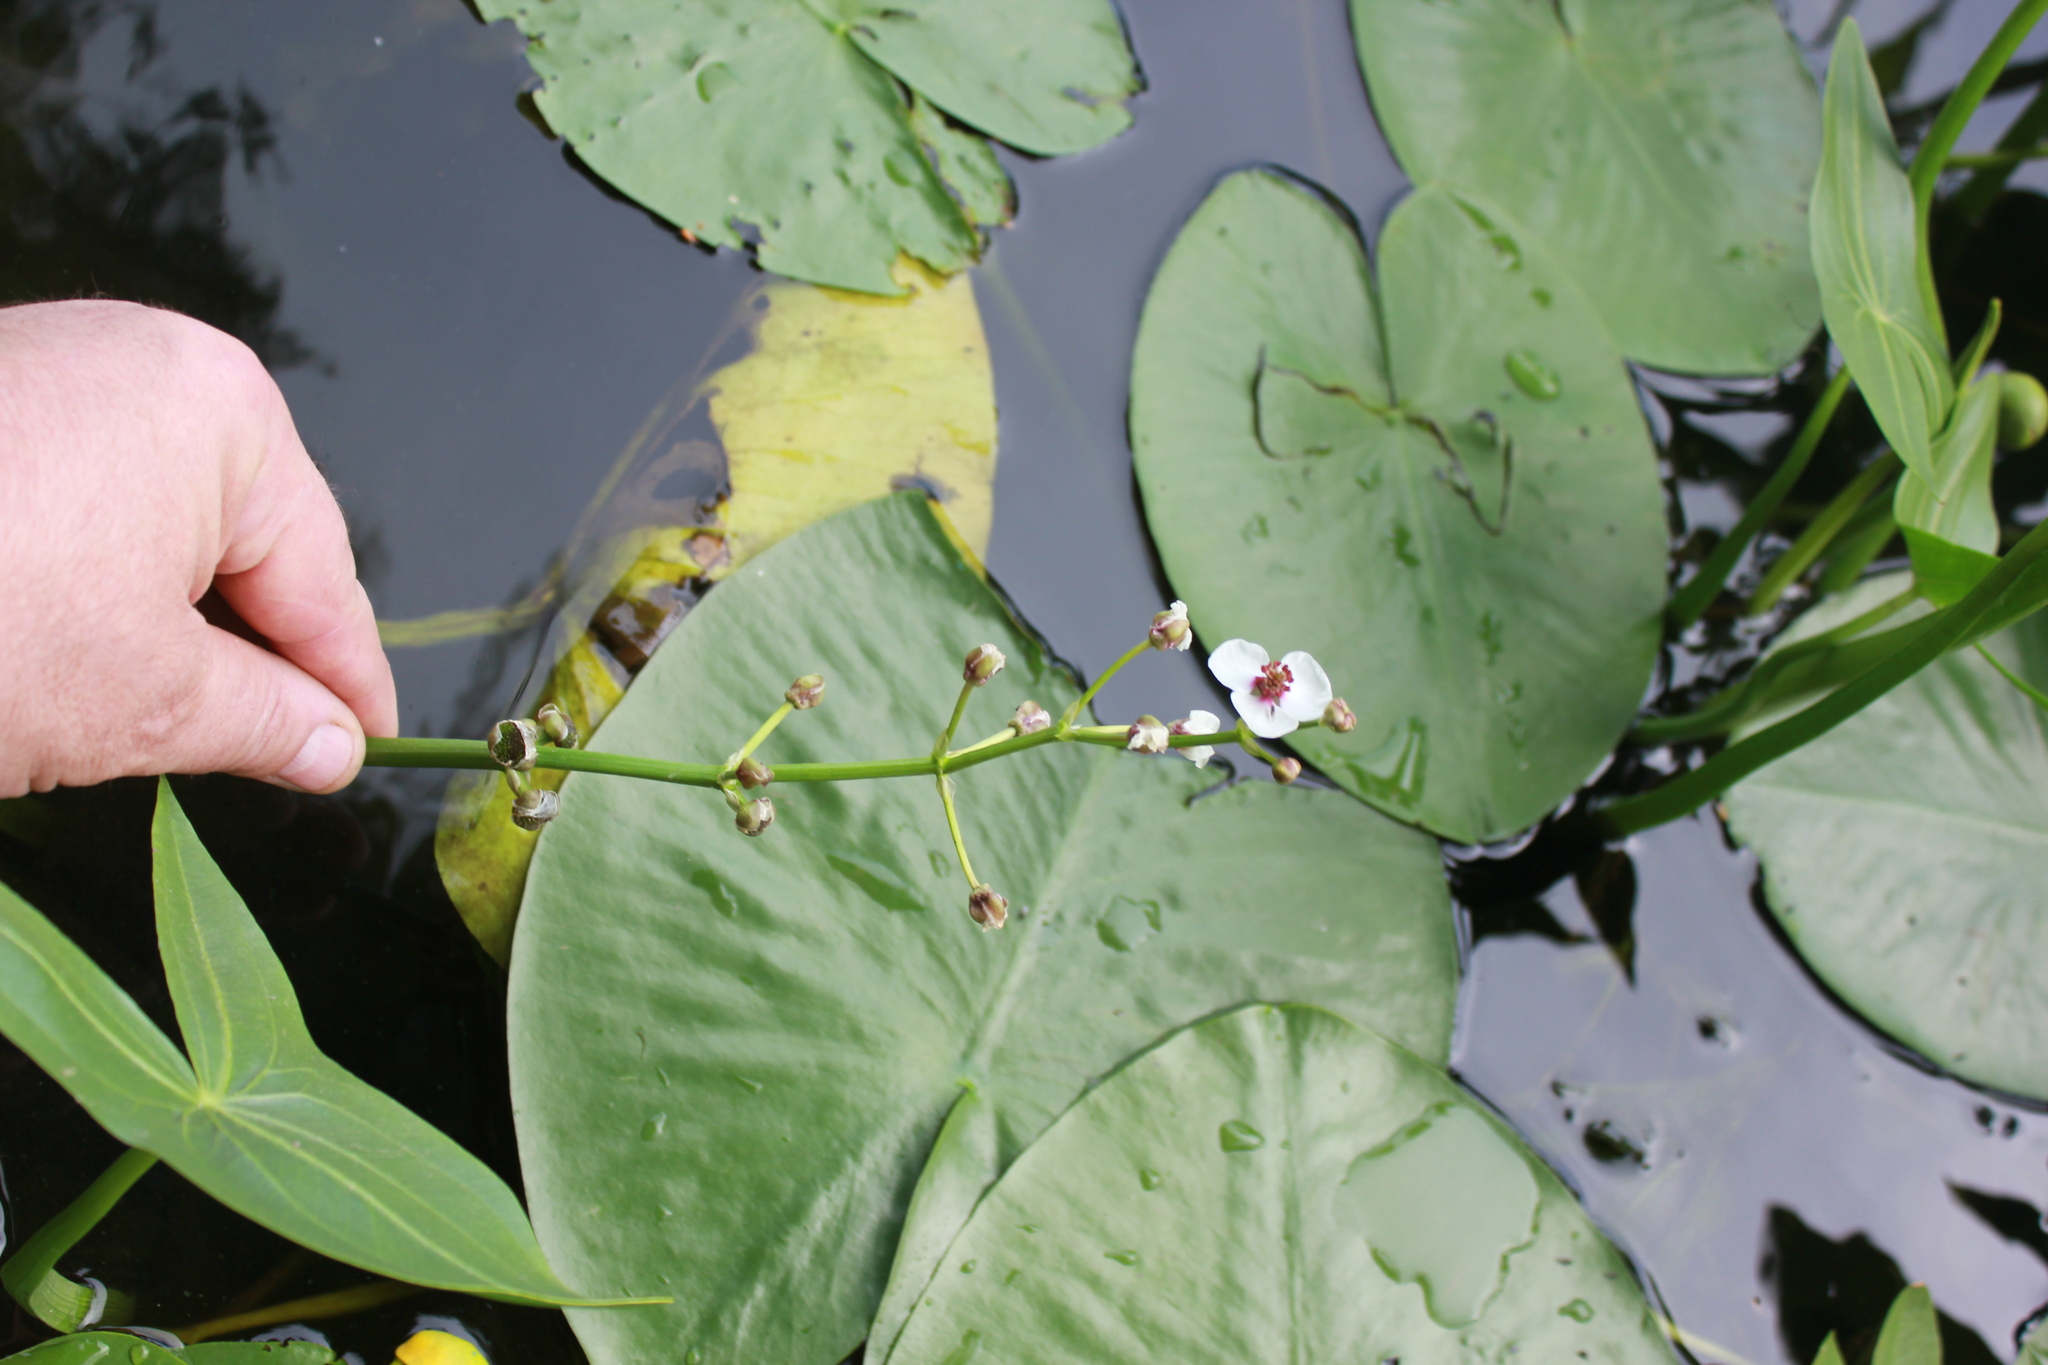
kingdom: Plantae
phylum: Tracheophyta
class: Liliopsida
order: Alismatales
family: Alismataceae
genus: Sagittaria
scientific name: Sagittaria sagittifolia
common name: Arrowhead
